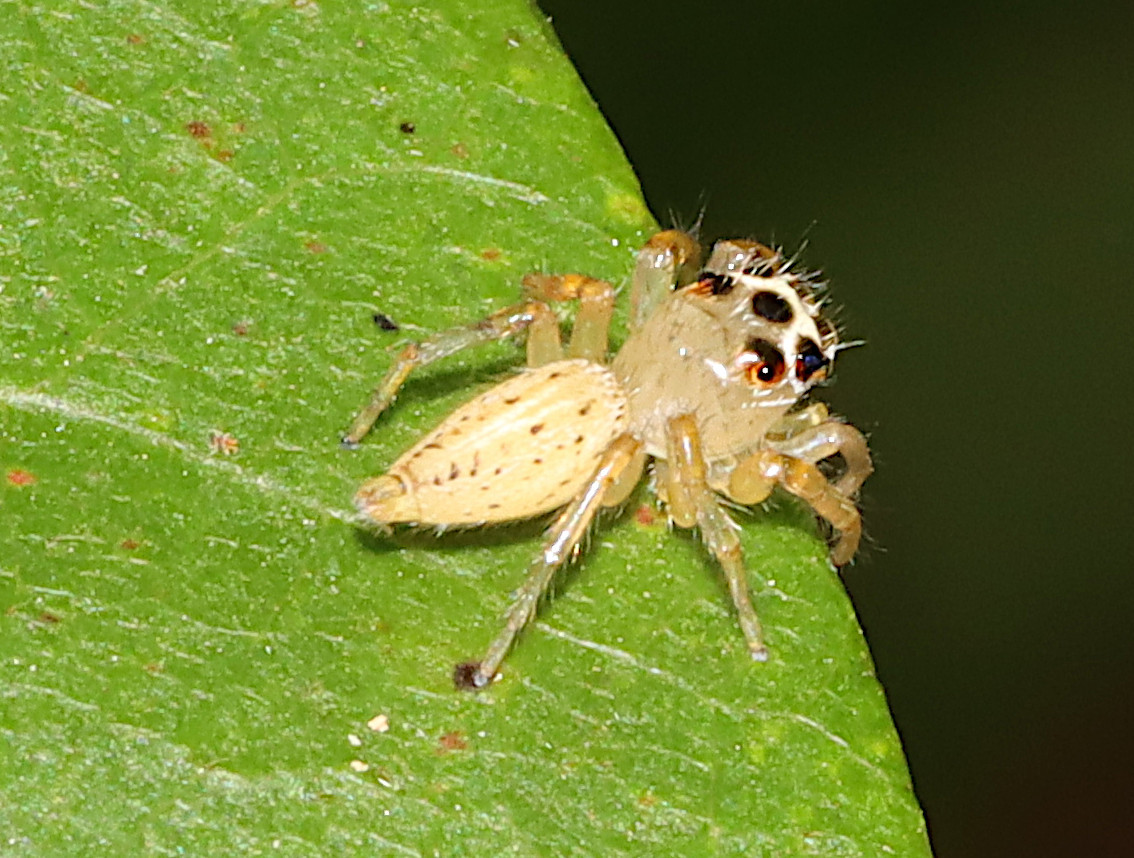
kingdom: Animalia
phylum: Arthropoda
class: Arachnida
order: Araneae
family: Salticidae
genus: Colonus
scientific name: Colonus sylvanus
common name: Jumping spiders
